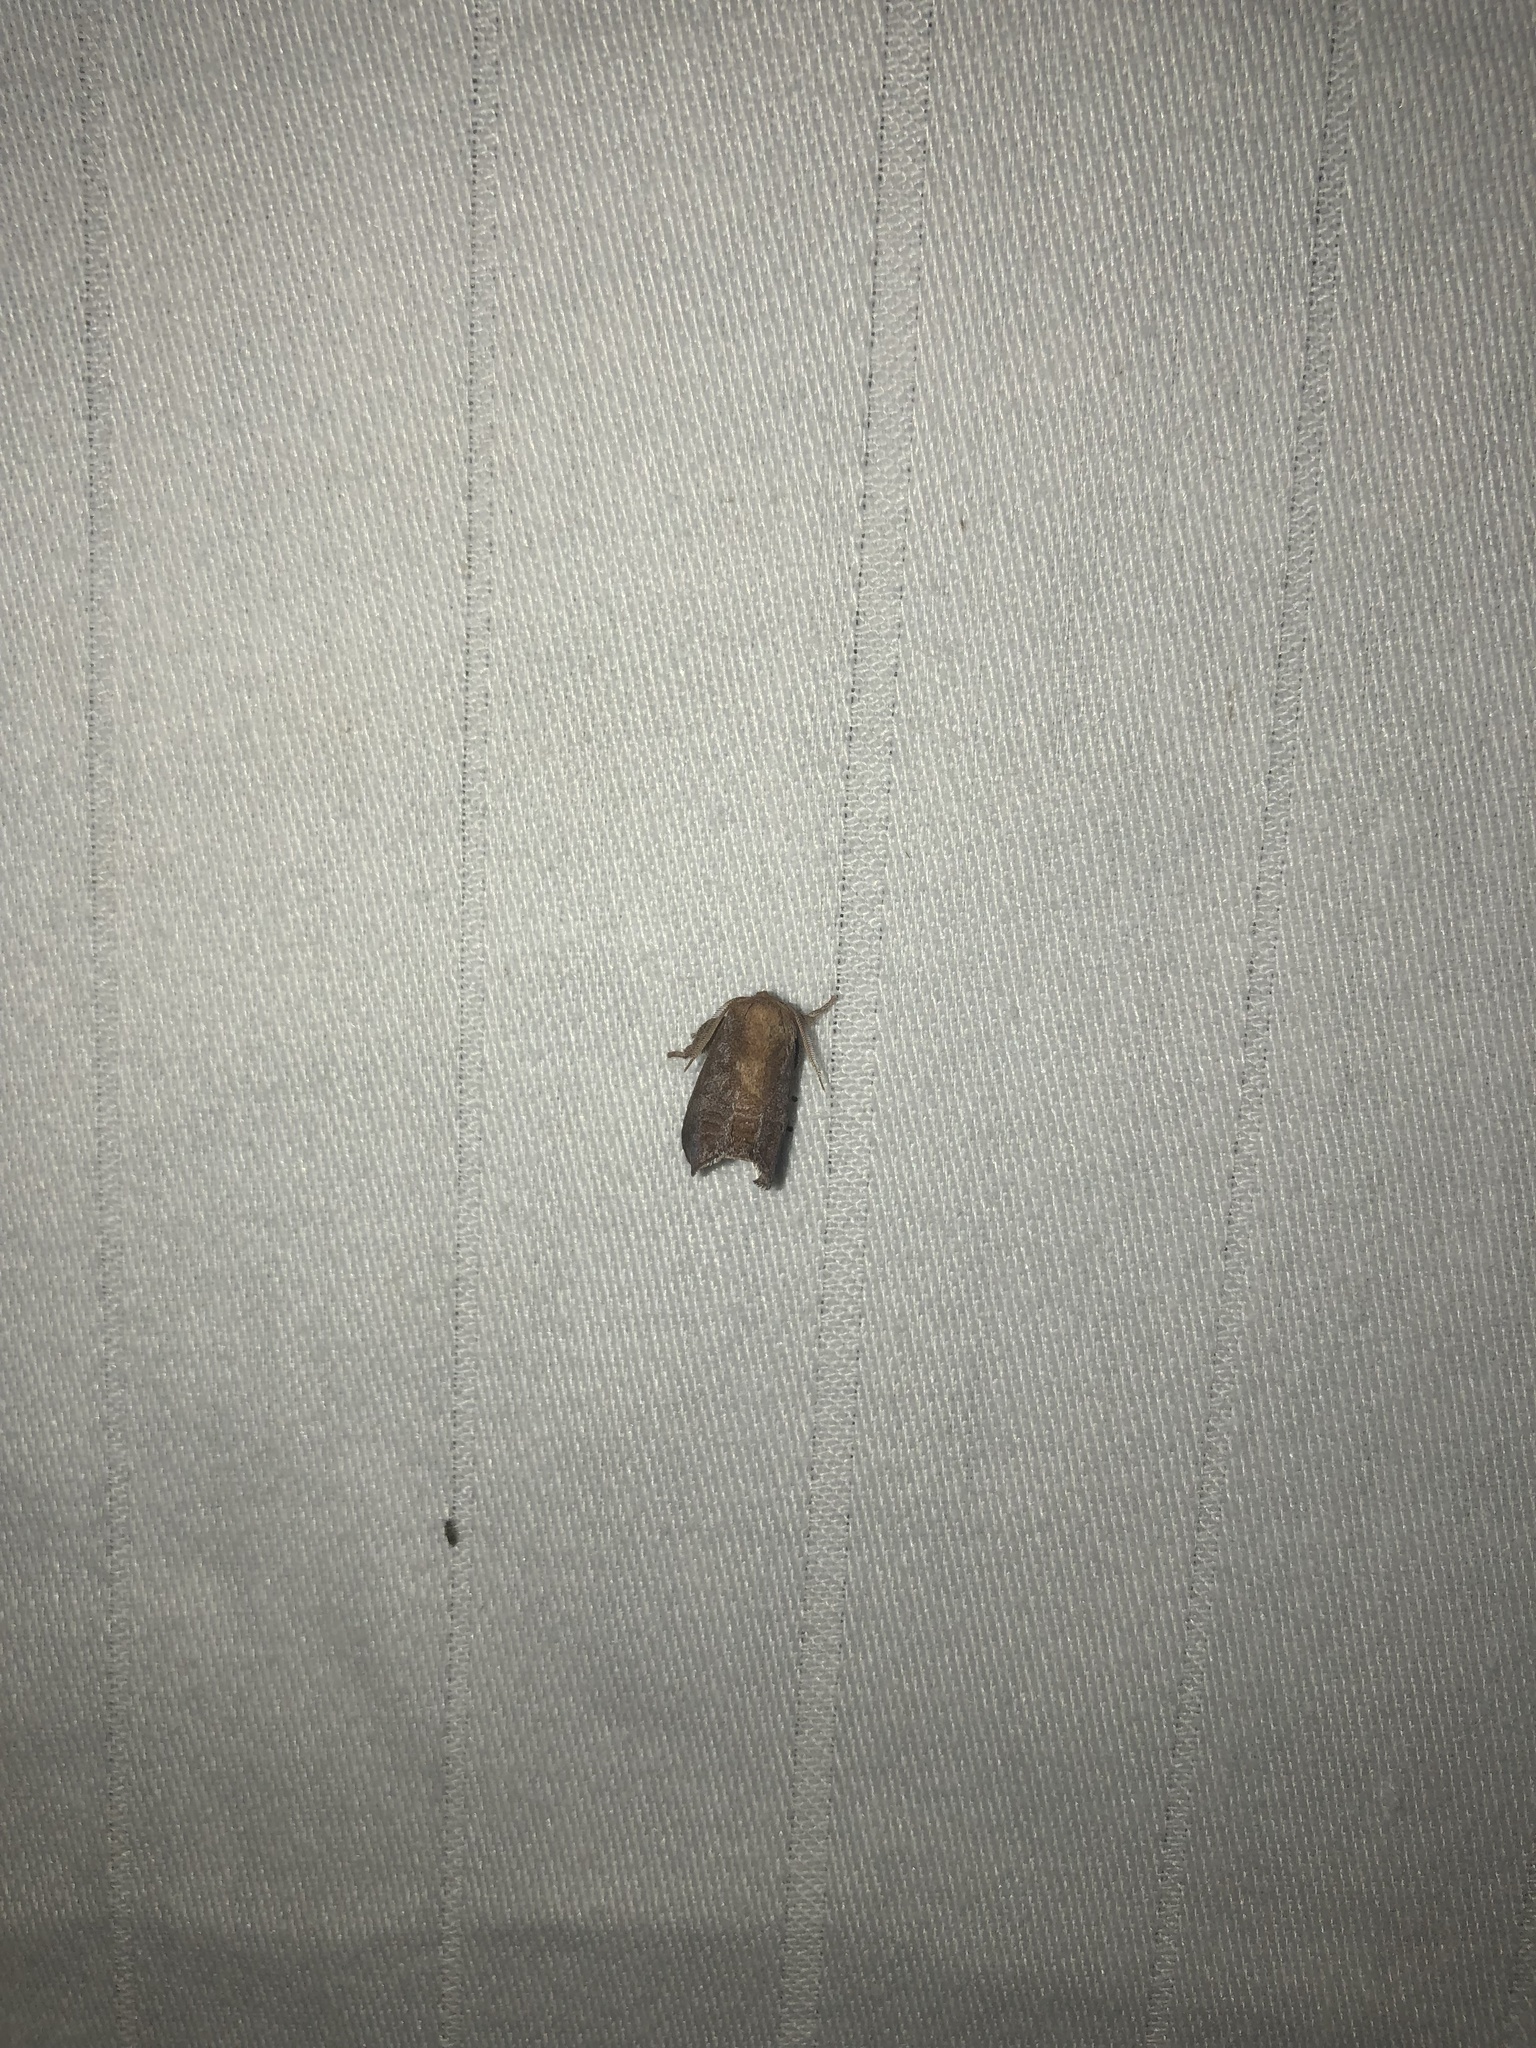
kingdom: Animalia
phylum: Arthropoda
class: Insecta
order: Lepidoptera
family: Limacodidae
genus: Isa
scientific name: Isa textula
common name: Crowned slug moth
